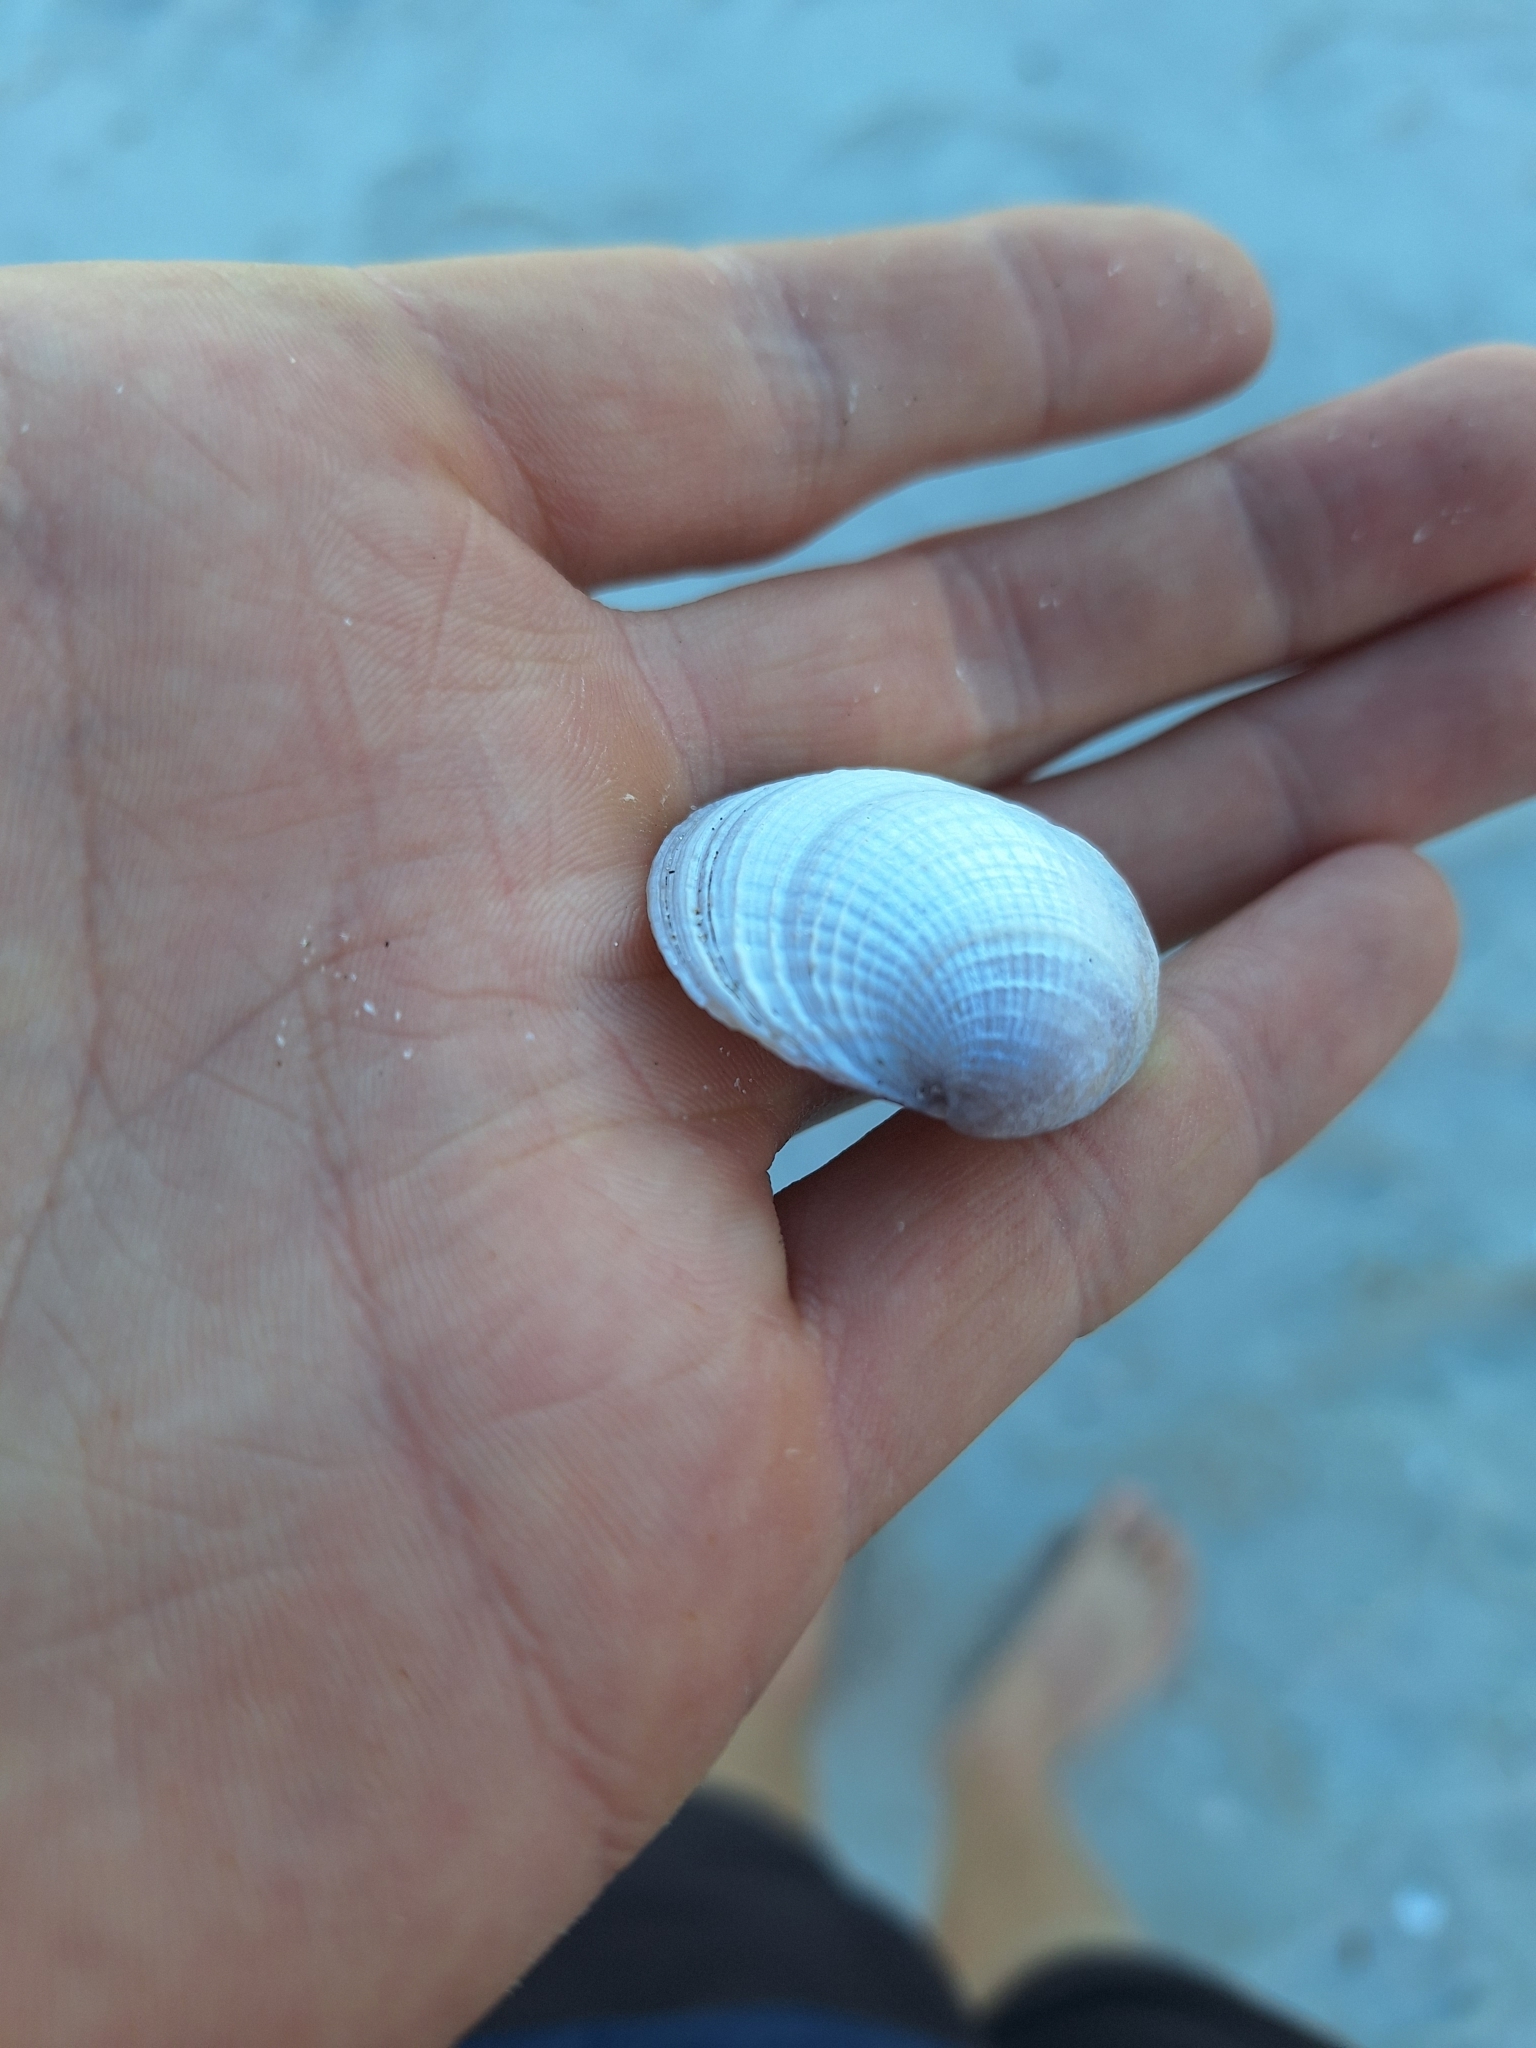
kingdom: Animalia
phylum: Mollusca
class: Bivalvia
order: Venerida
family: Veneridae
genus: Austrovenus
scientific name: Austrovenus stutchburyi
